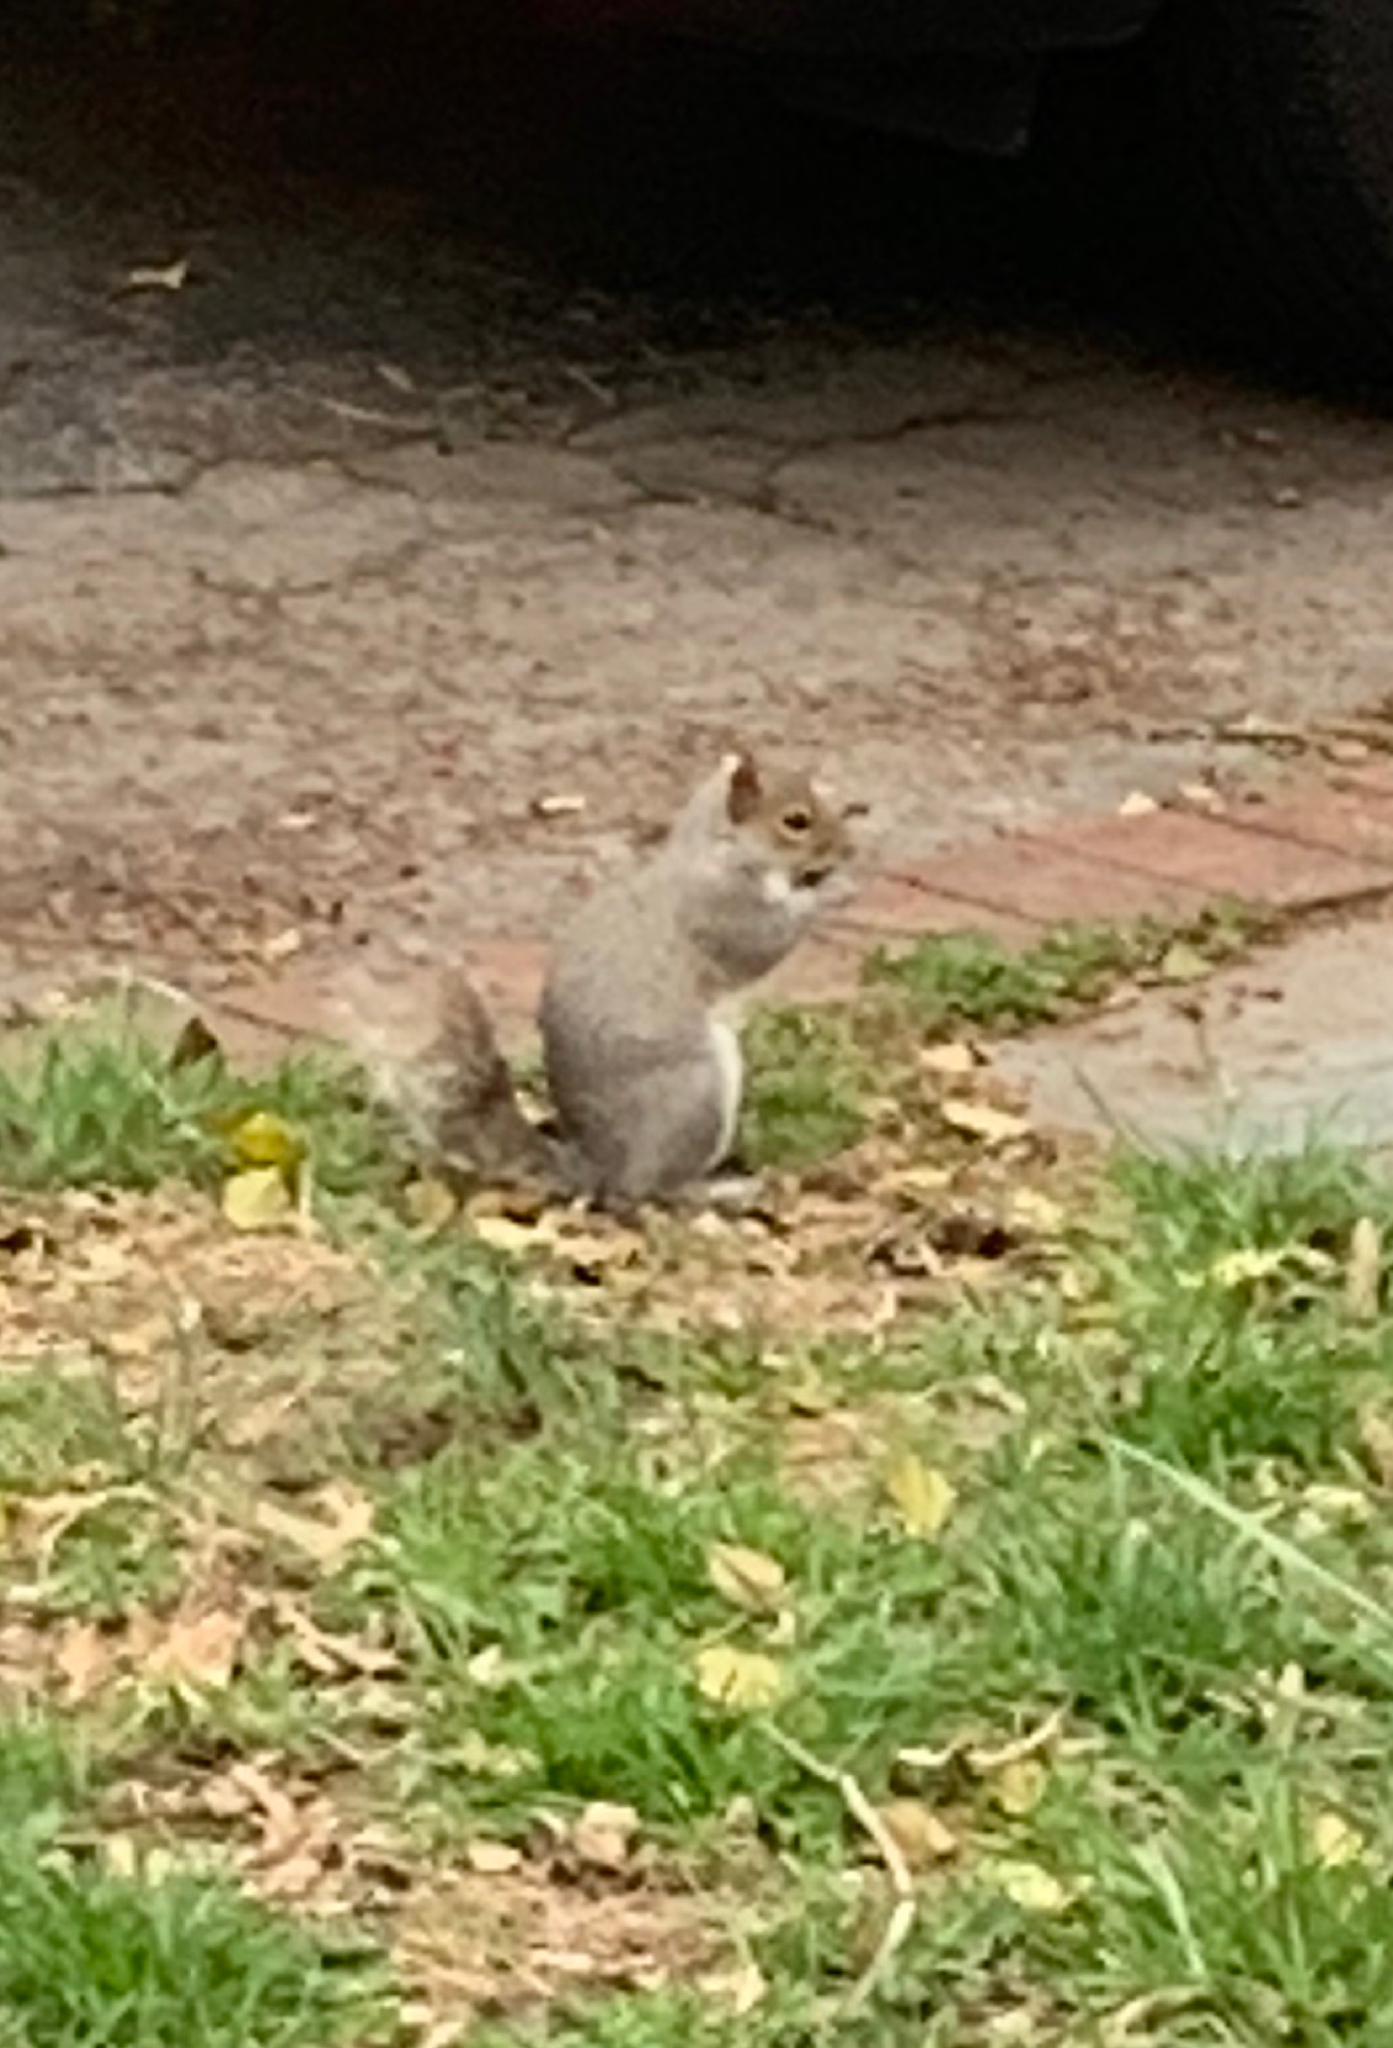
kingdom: Animalia
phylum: Chordata
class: Mammalia
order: Rodentia
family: Sciuridae
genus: Sciurus
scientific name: Sciurus carolinensis
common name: Eastern gray squirrel
